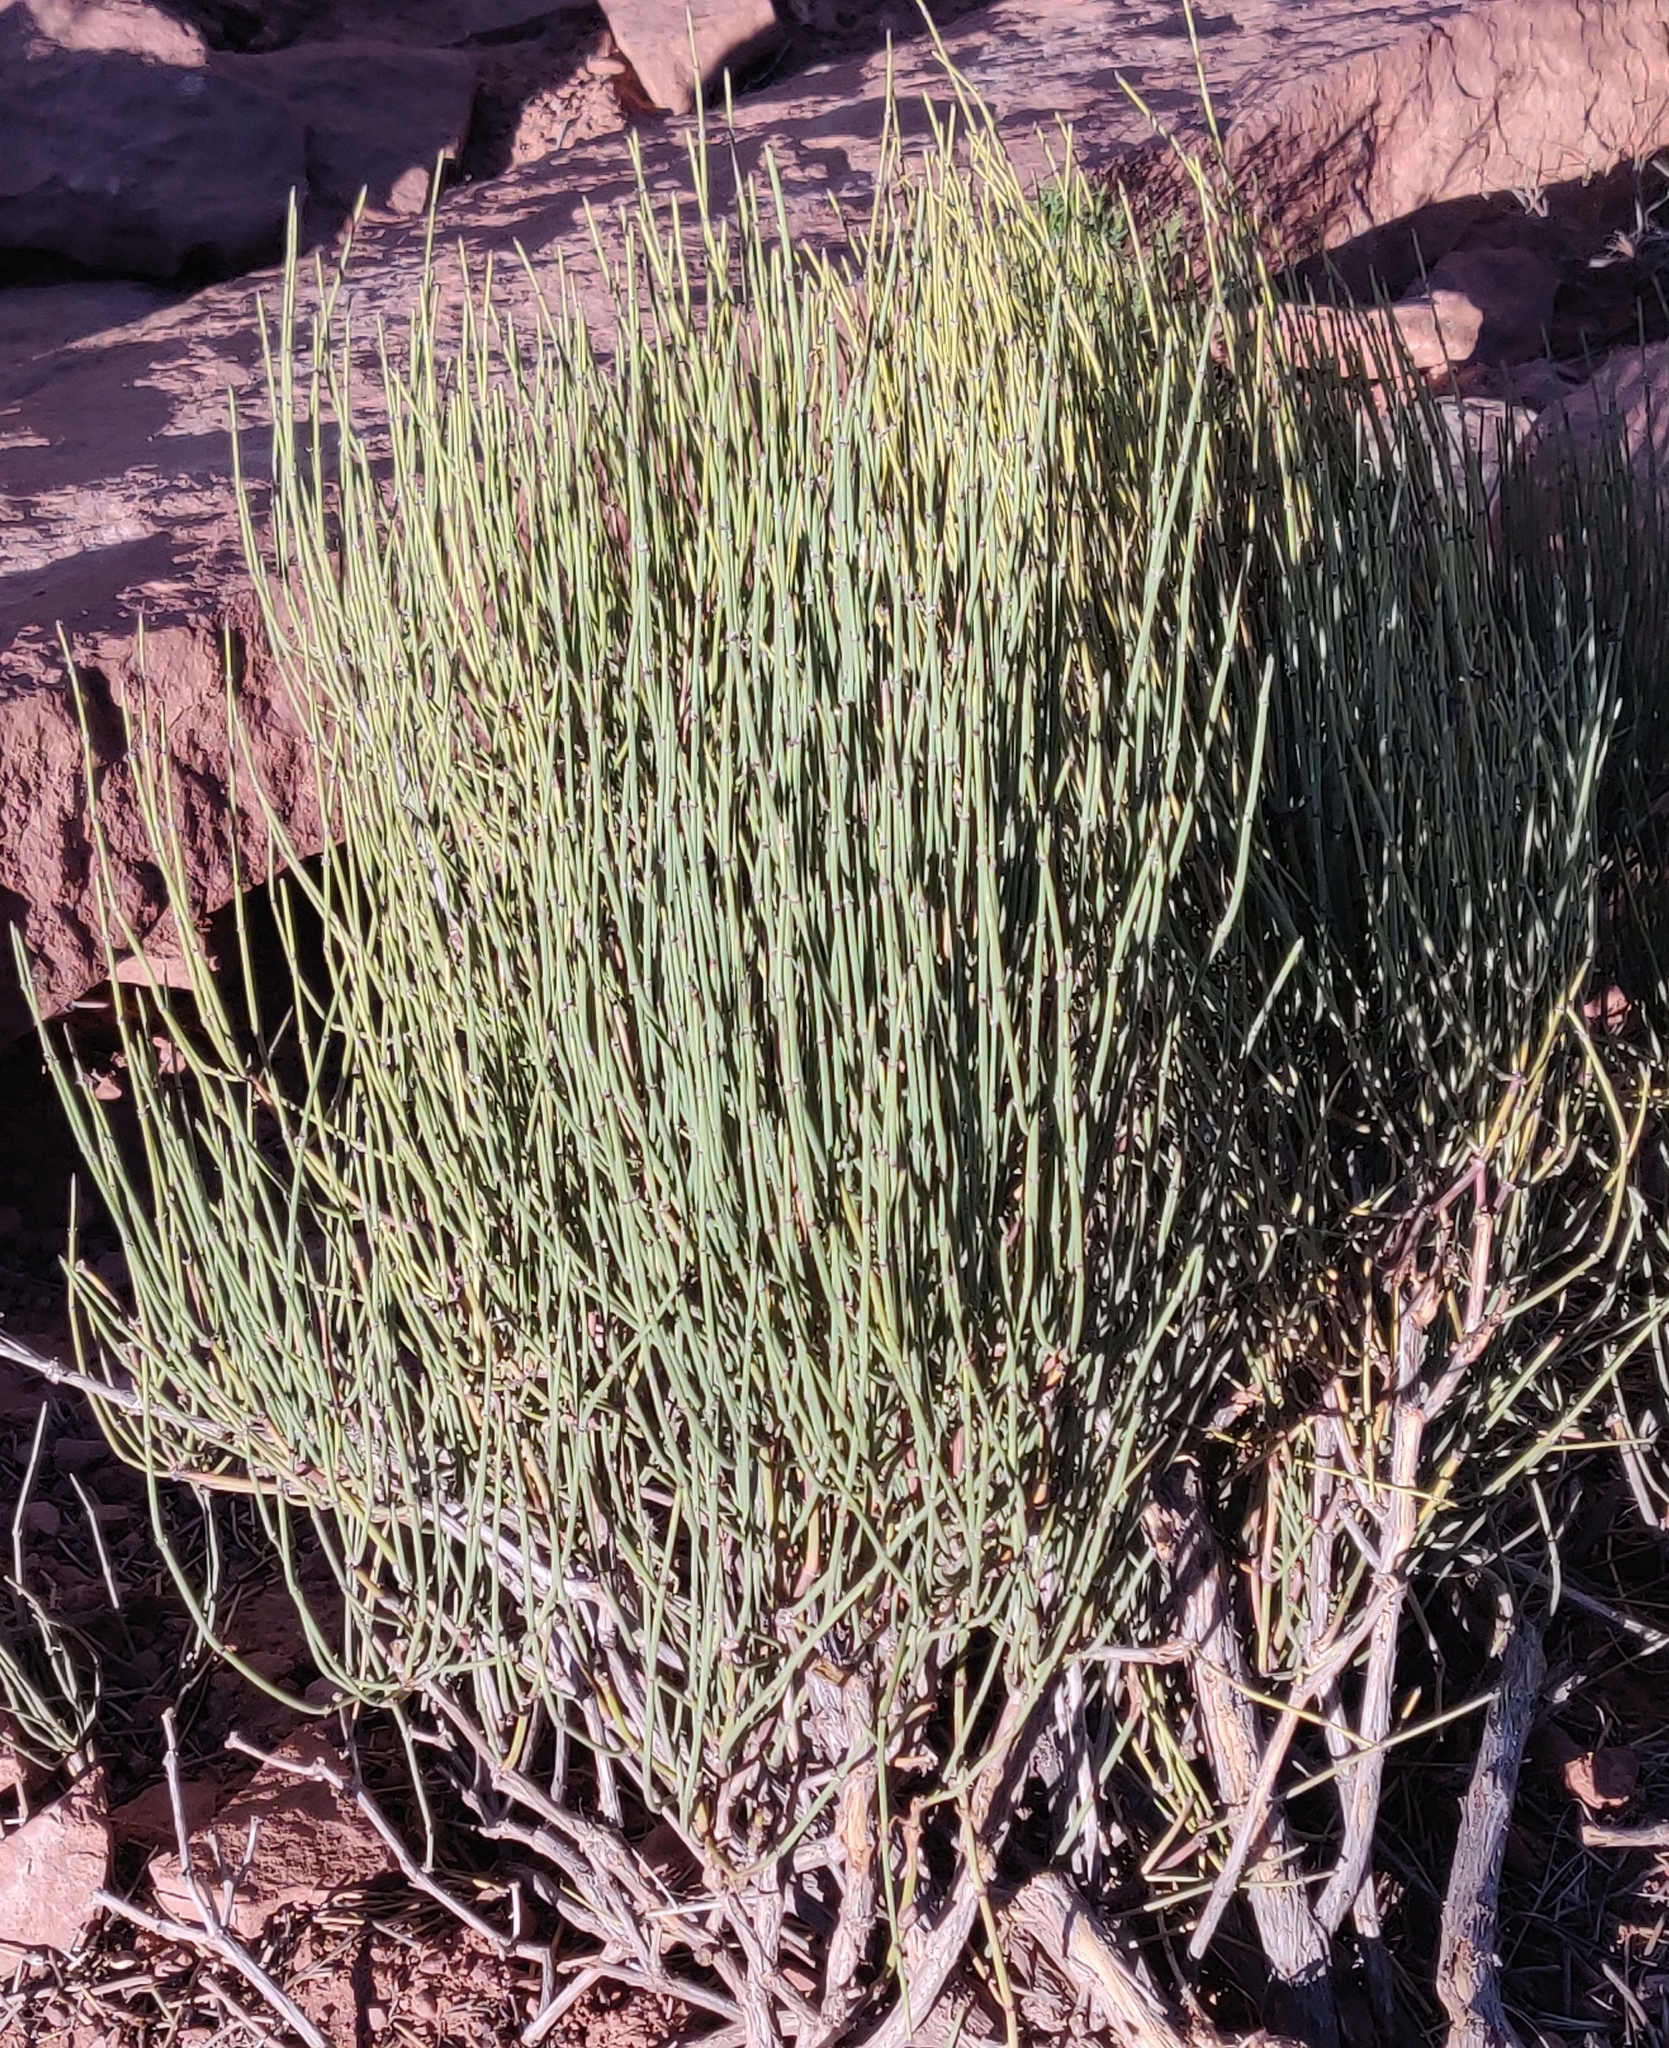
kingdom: Plantae
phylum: Tracheophyta
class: Gnetopsida
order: Ephedrales
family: Ephedraceae
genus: Ephedra
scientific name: Ephedra viridis
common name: Green ephedra
